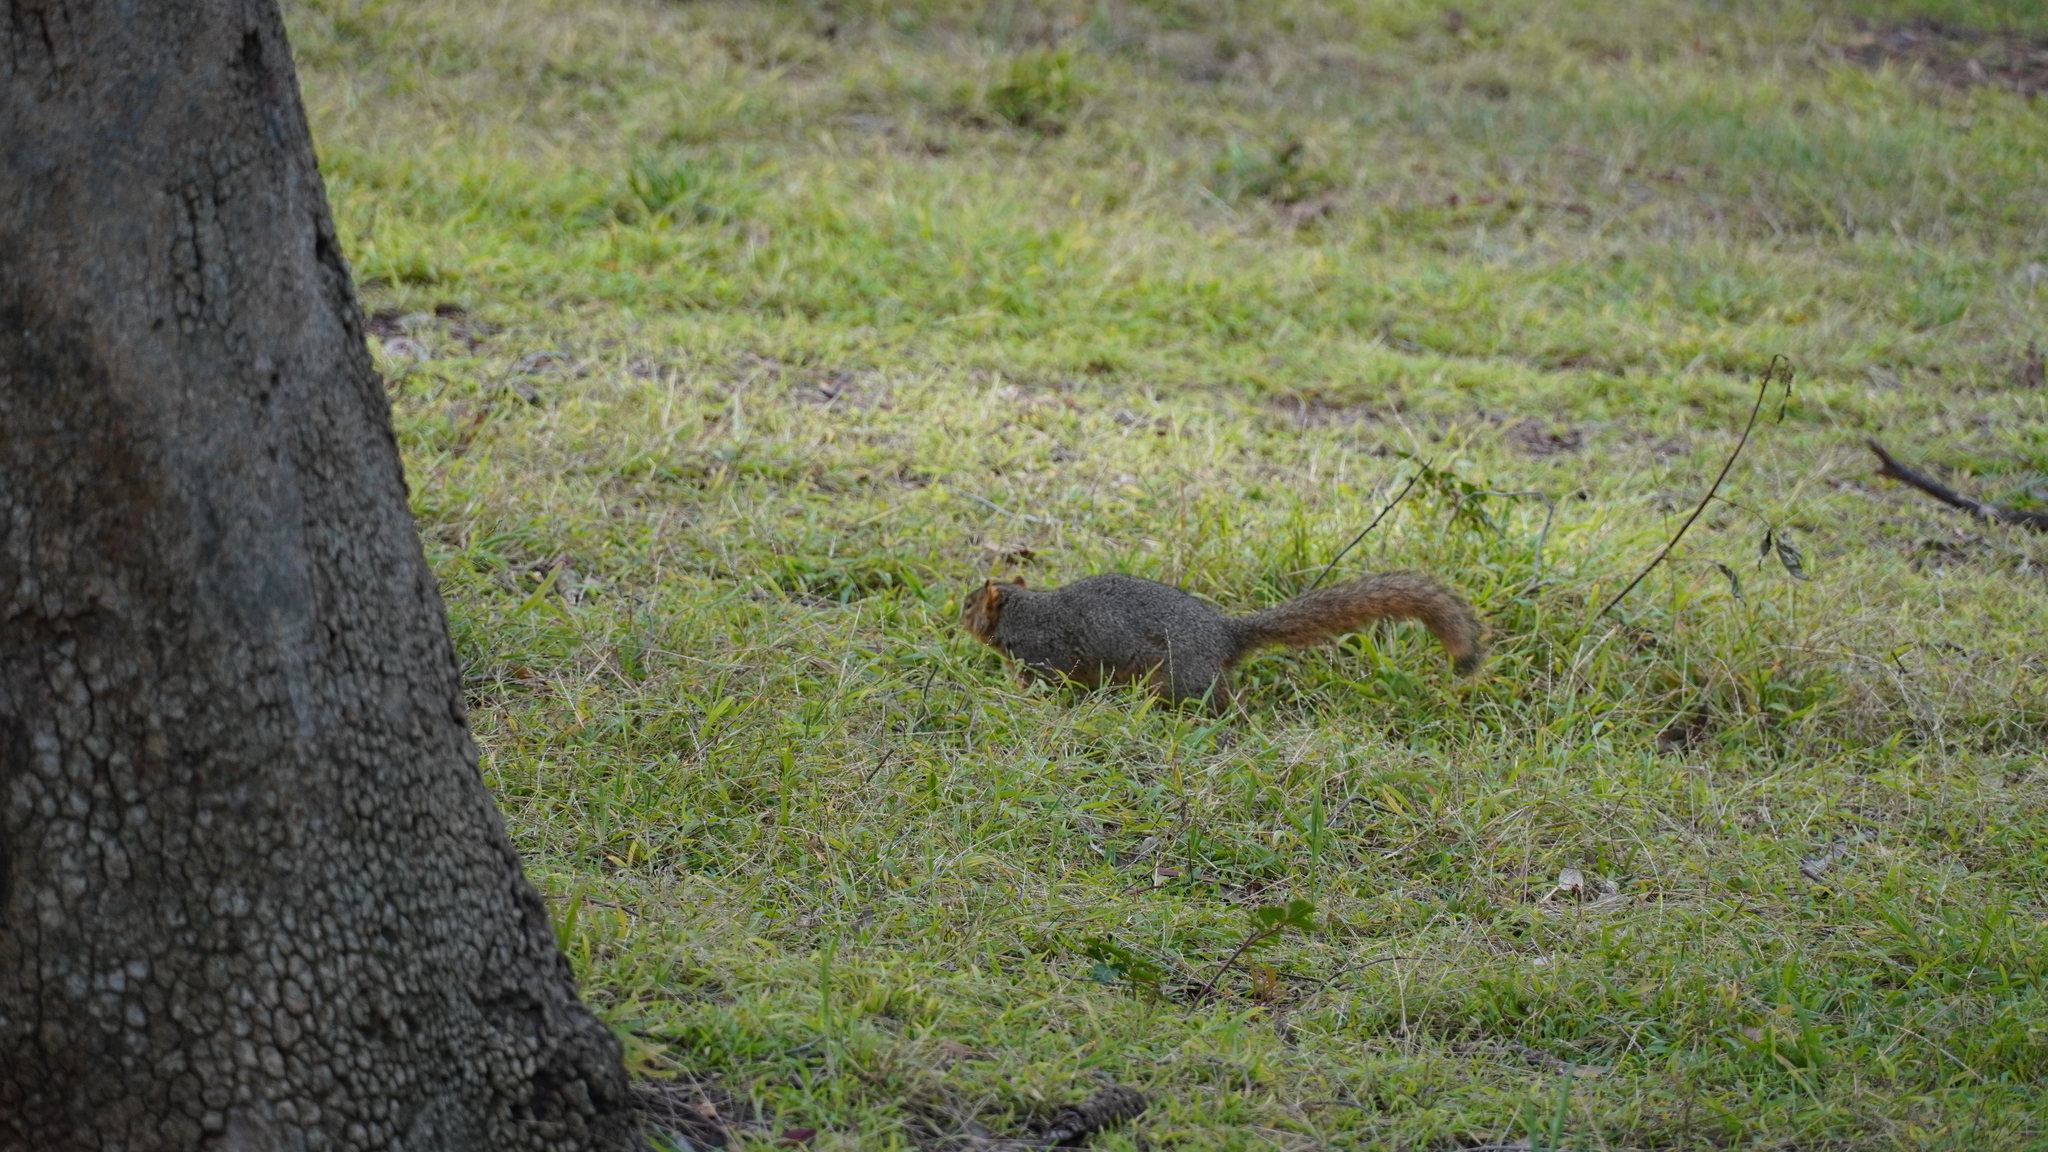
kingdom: Animalia
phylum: Chordata
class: Mammalia
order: Rodentia
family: Sciuridae
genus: Sciurus
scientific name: Sciurus niger
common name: Fox squirrel
